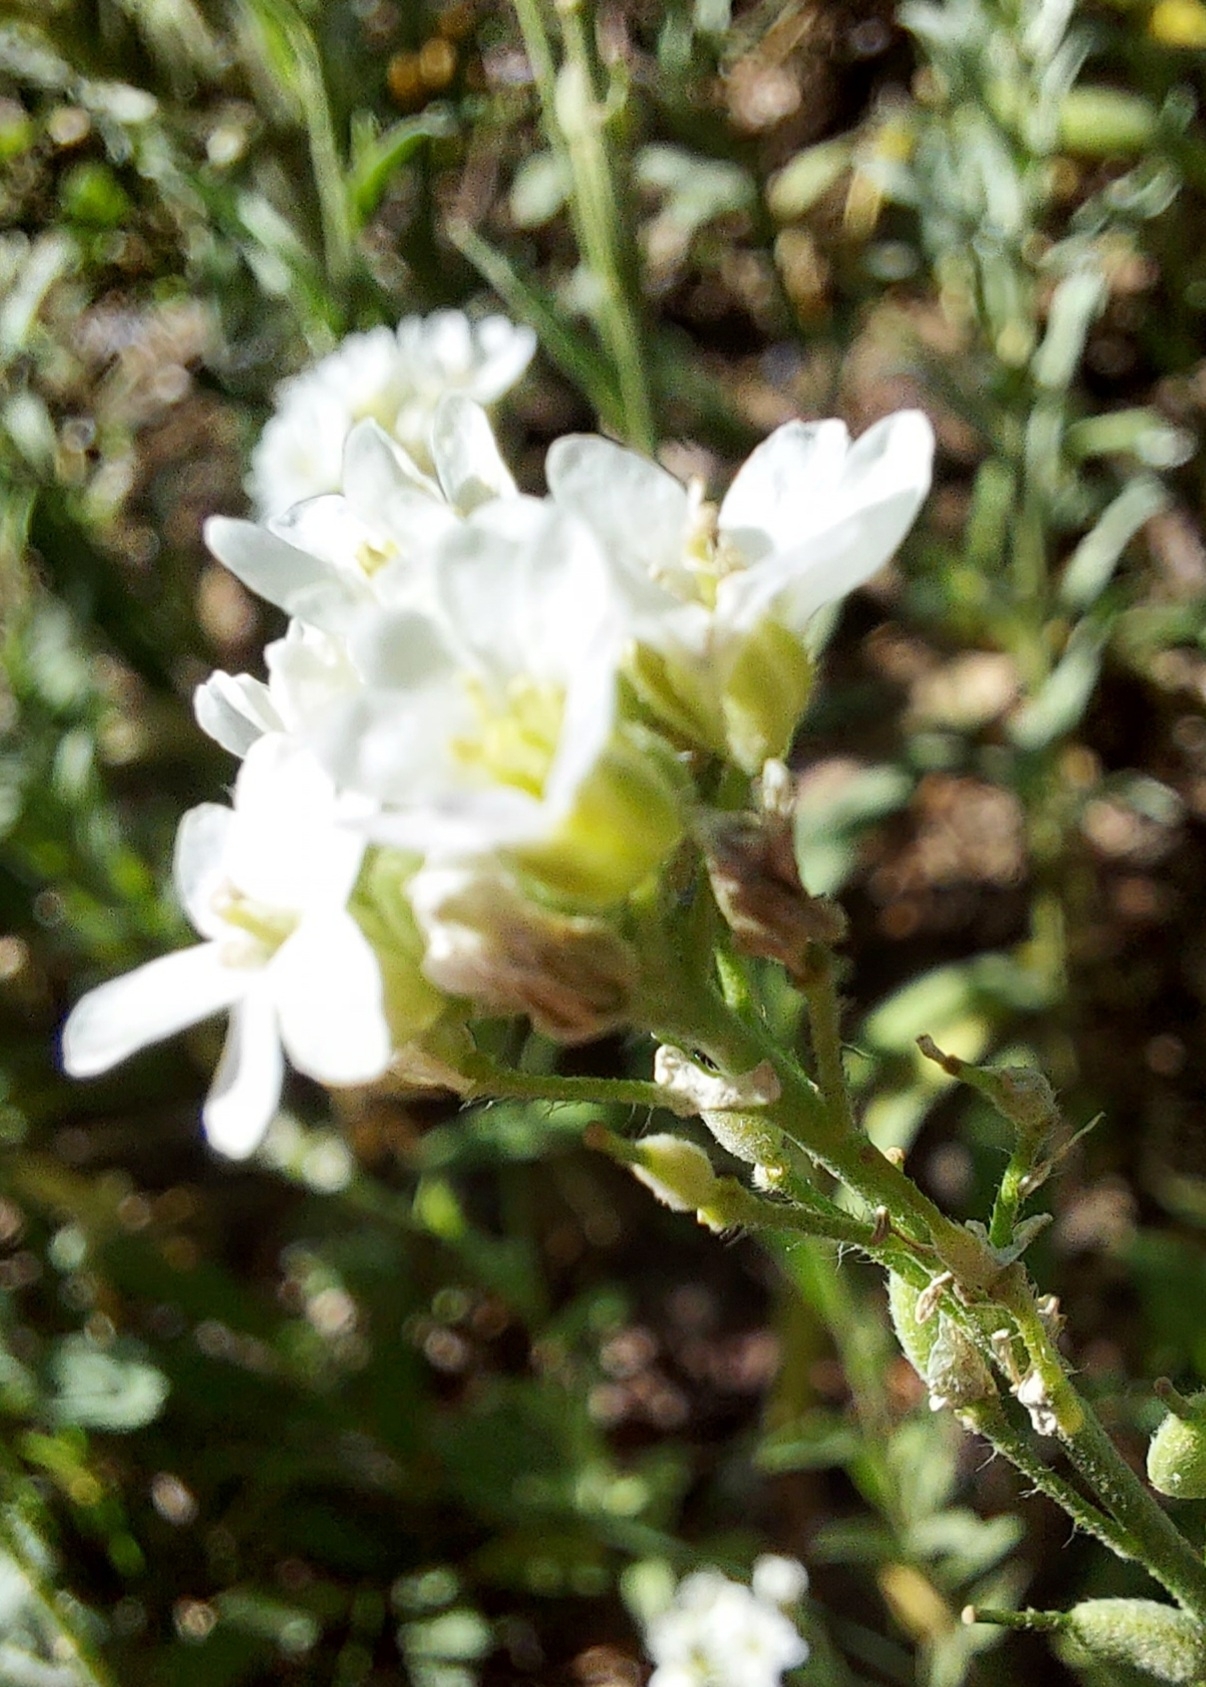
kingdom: Plantae
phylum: Tracheophyta
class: Magnoliopsida
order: Brassicales
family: Brassicaceae
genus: Berteroa
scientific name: Berteroa incana
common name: Hoary alison
